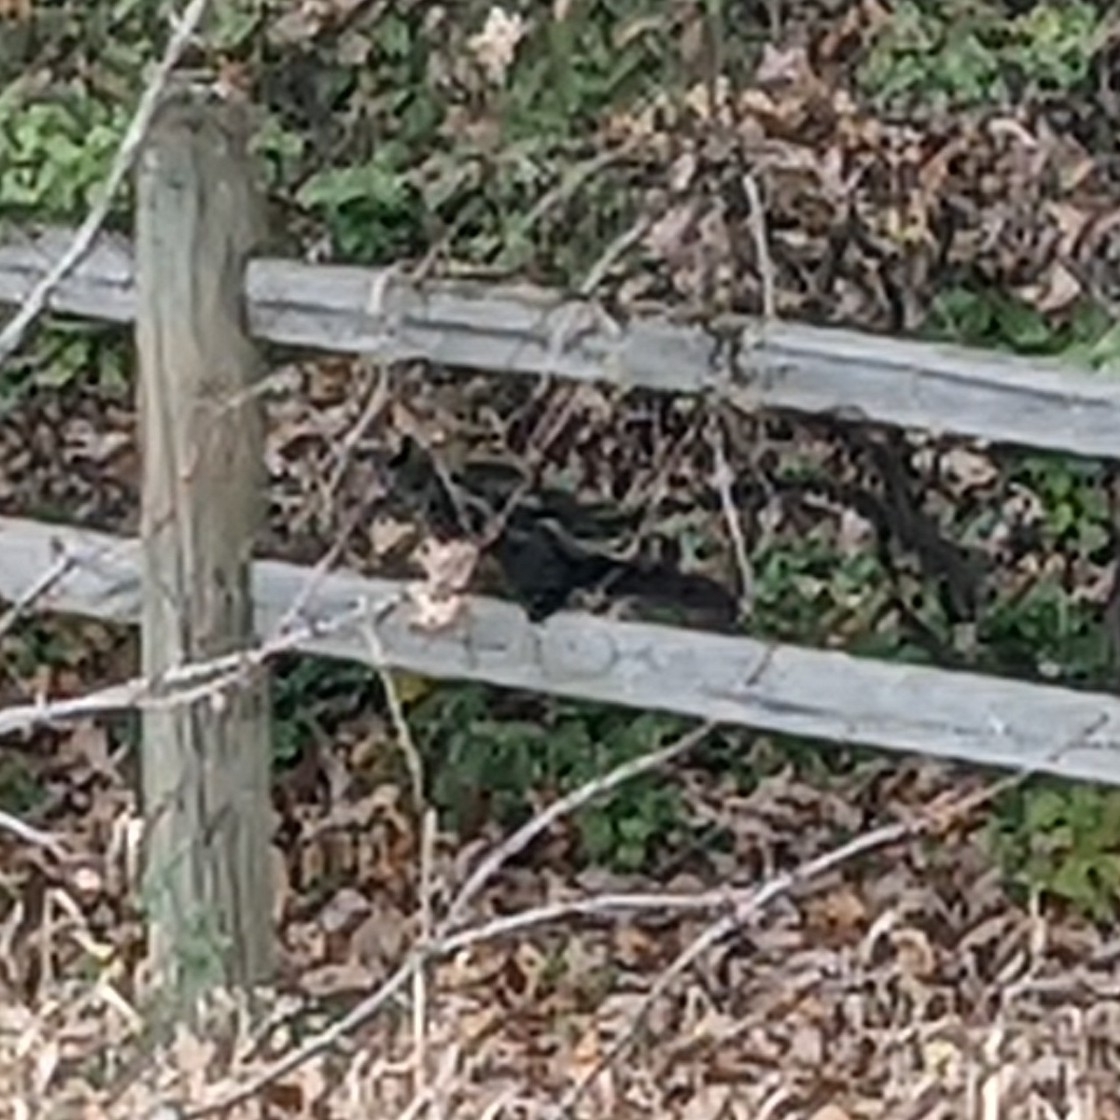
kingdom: Animalia
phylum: Chordata
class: Mammalia
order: Rodentia
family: Sciuridae
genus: Sciurus
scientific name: Sciurus carolinensis
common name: Eastern gray squirrel
